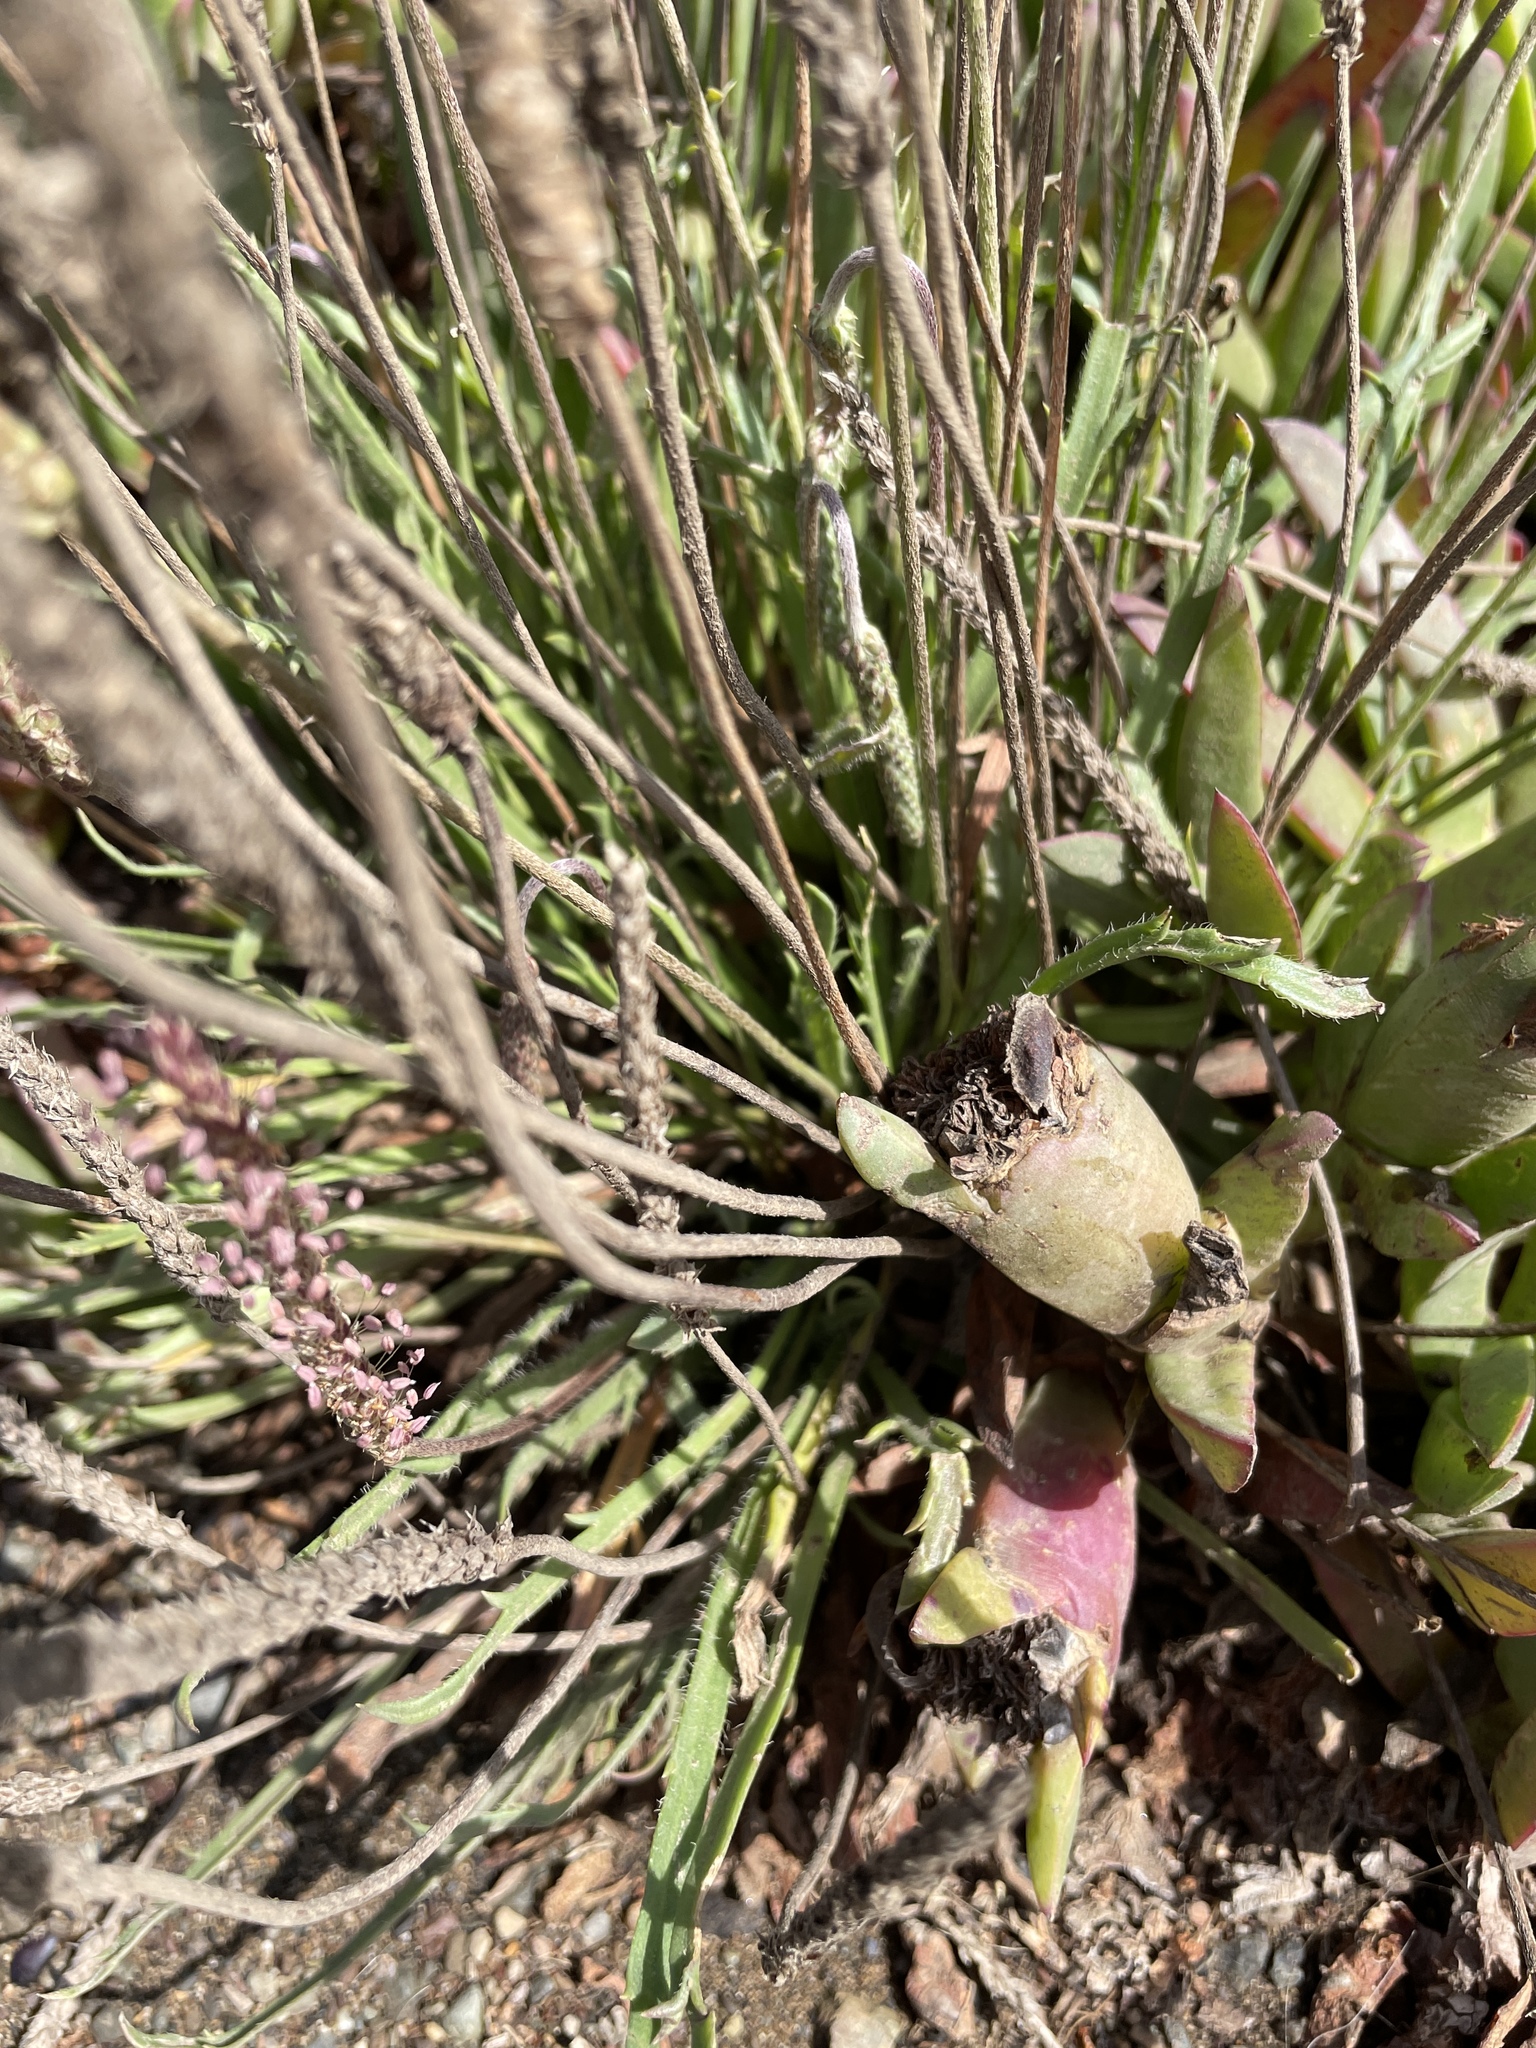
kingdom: Plantae
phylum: Tracheophyta
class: Magnoliopsida
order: Lamiales
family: Plantaginaceae
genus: Plantago
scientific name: Plantago coronopus
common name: Buck's-horn plantain
